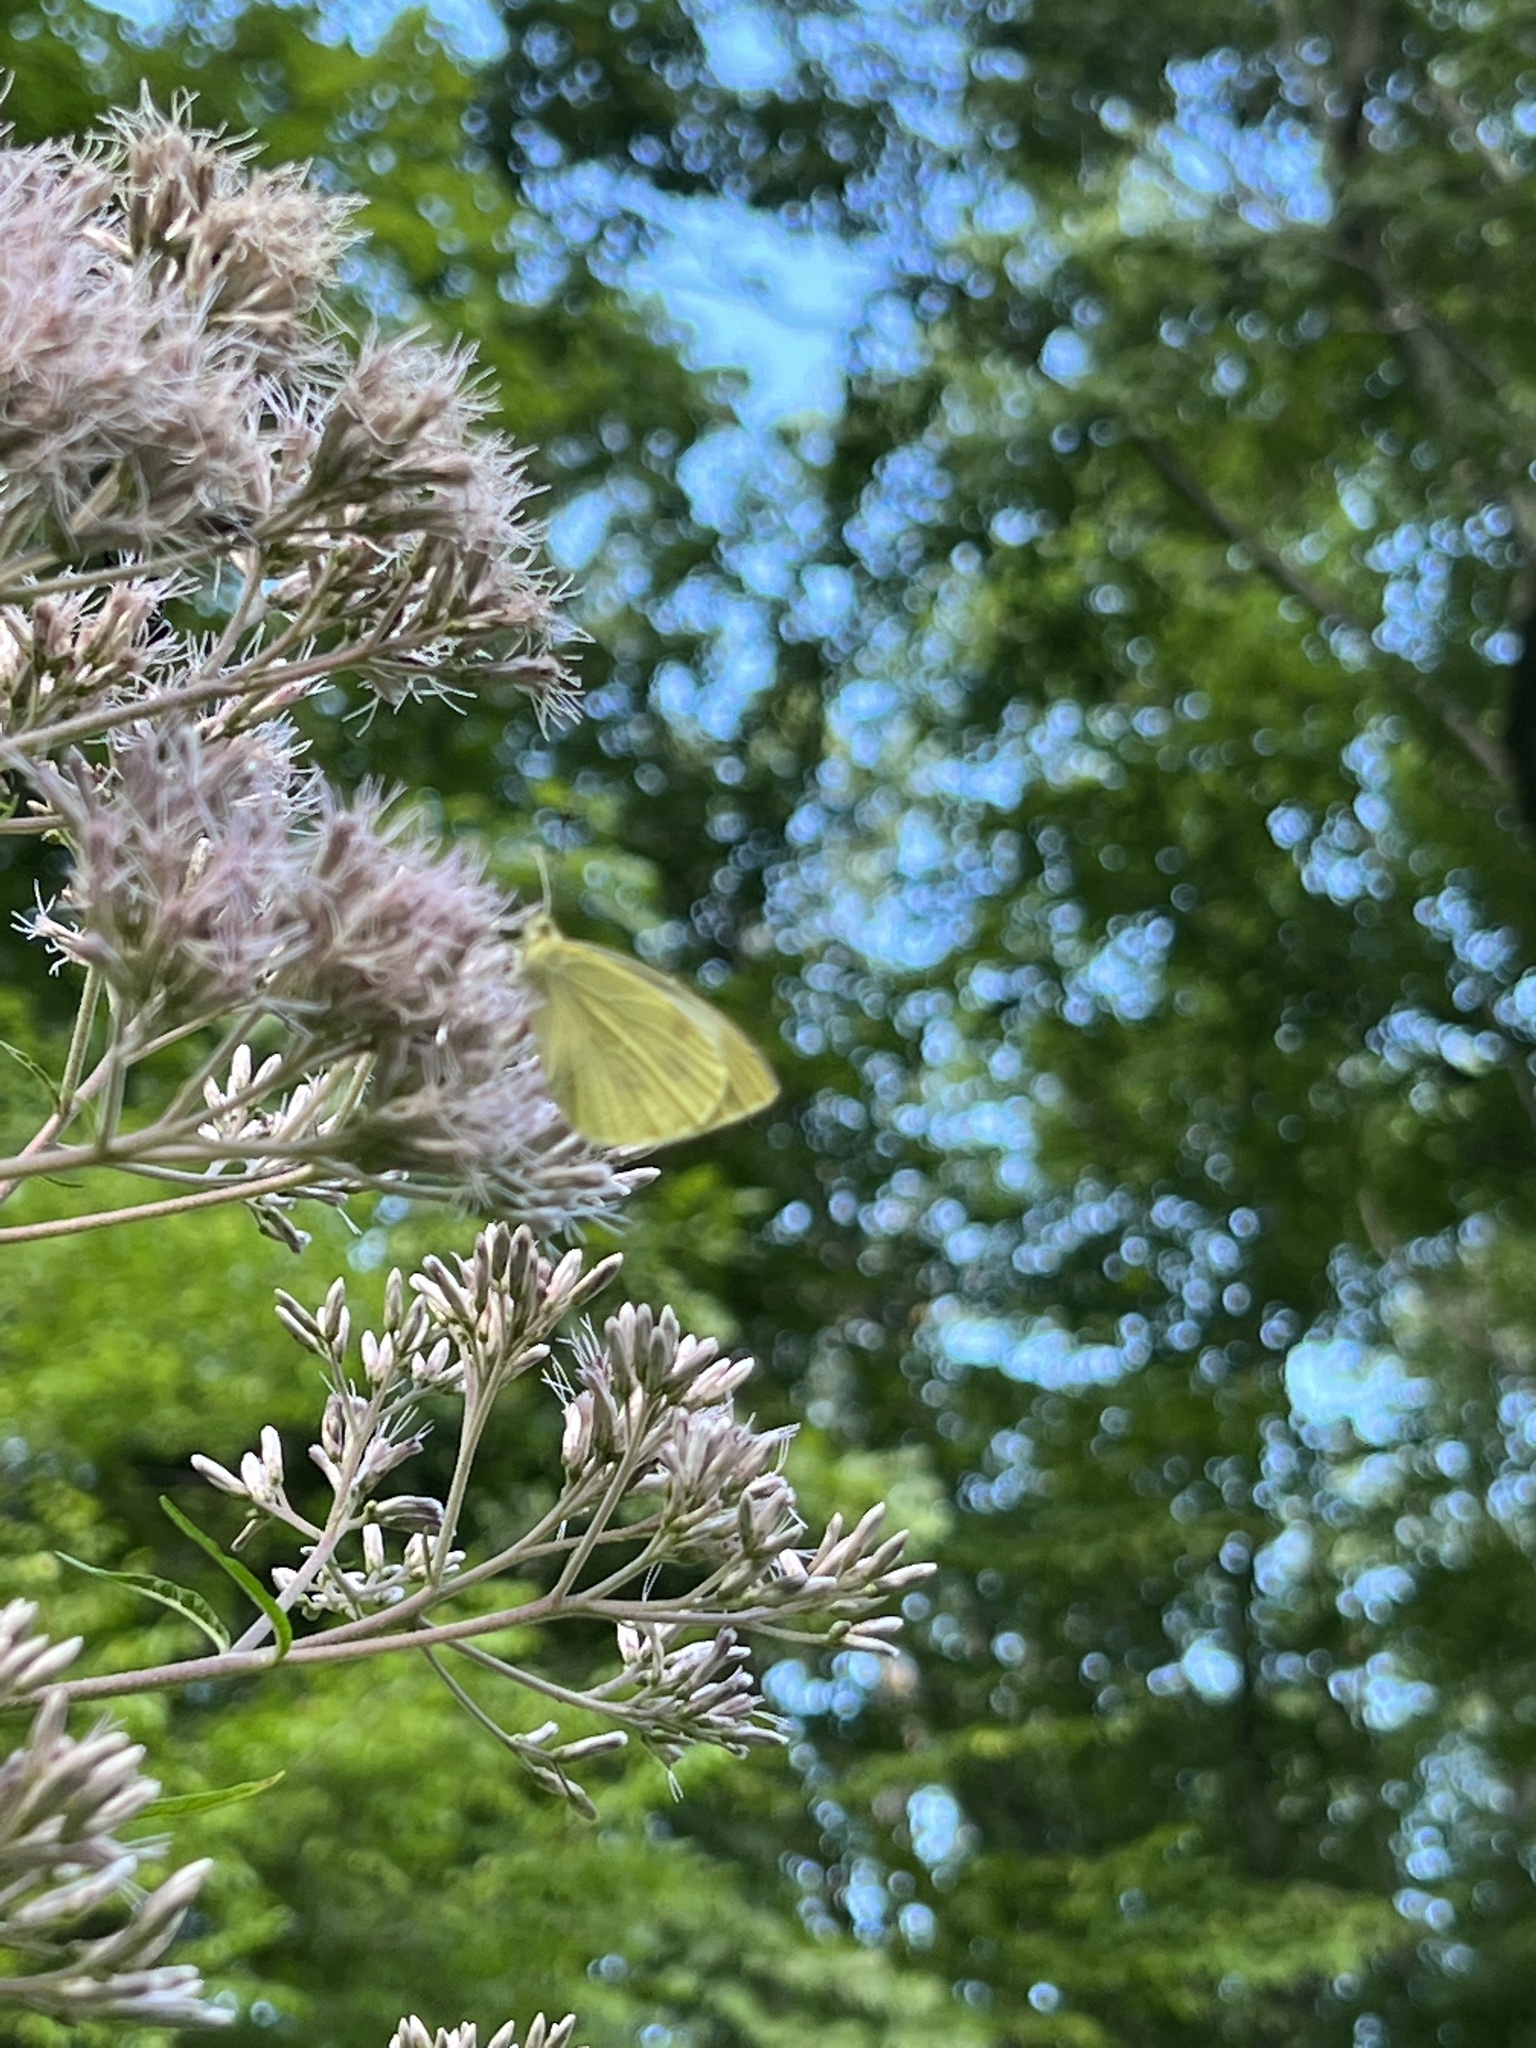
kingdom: Animalia
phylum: Arthropoda
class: Insecta
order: Lepidoptera
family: Pieridae
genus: Pieris
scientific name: Pieris rapae
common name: Small white
